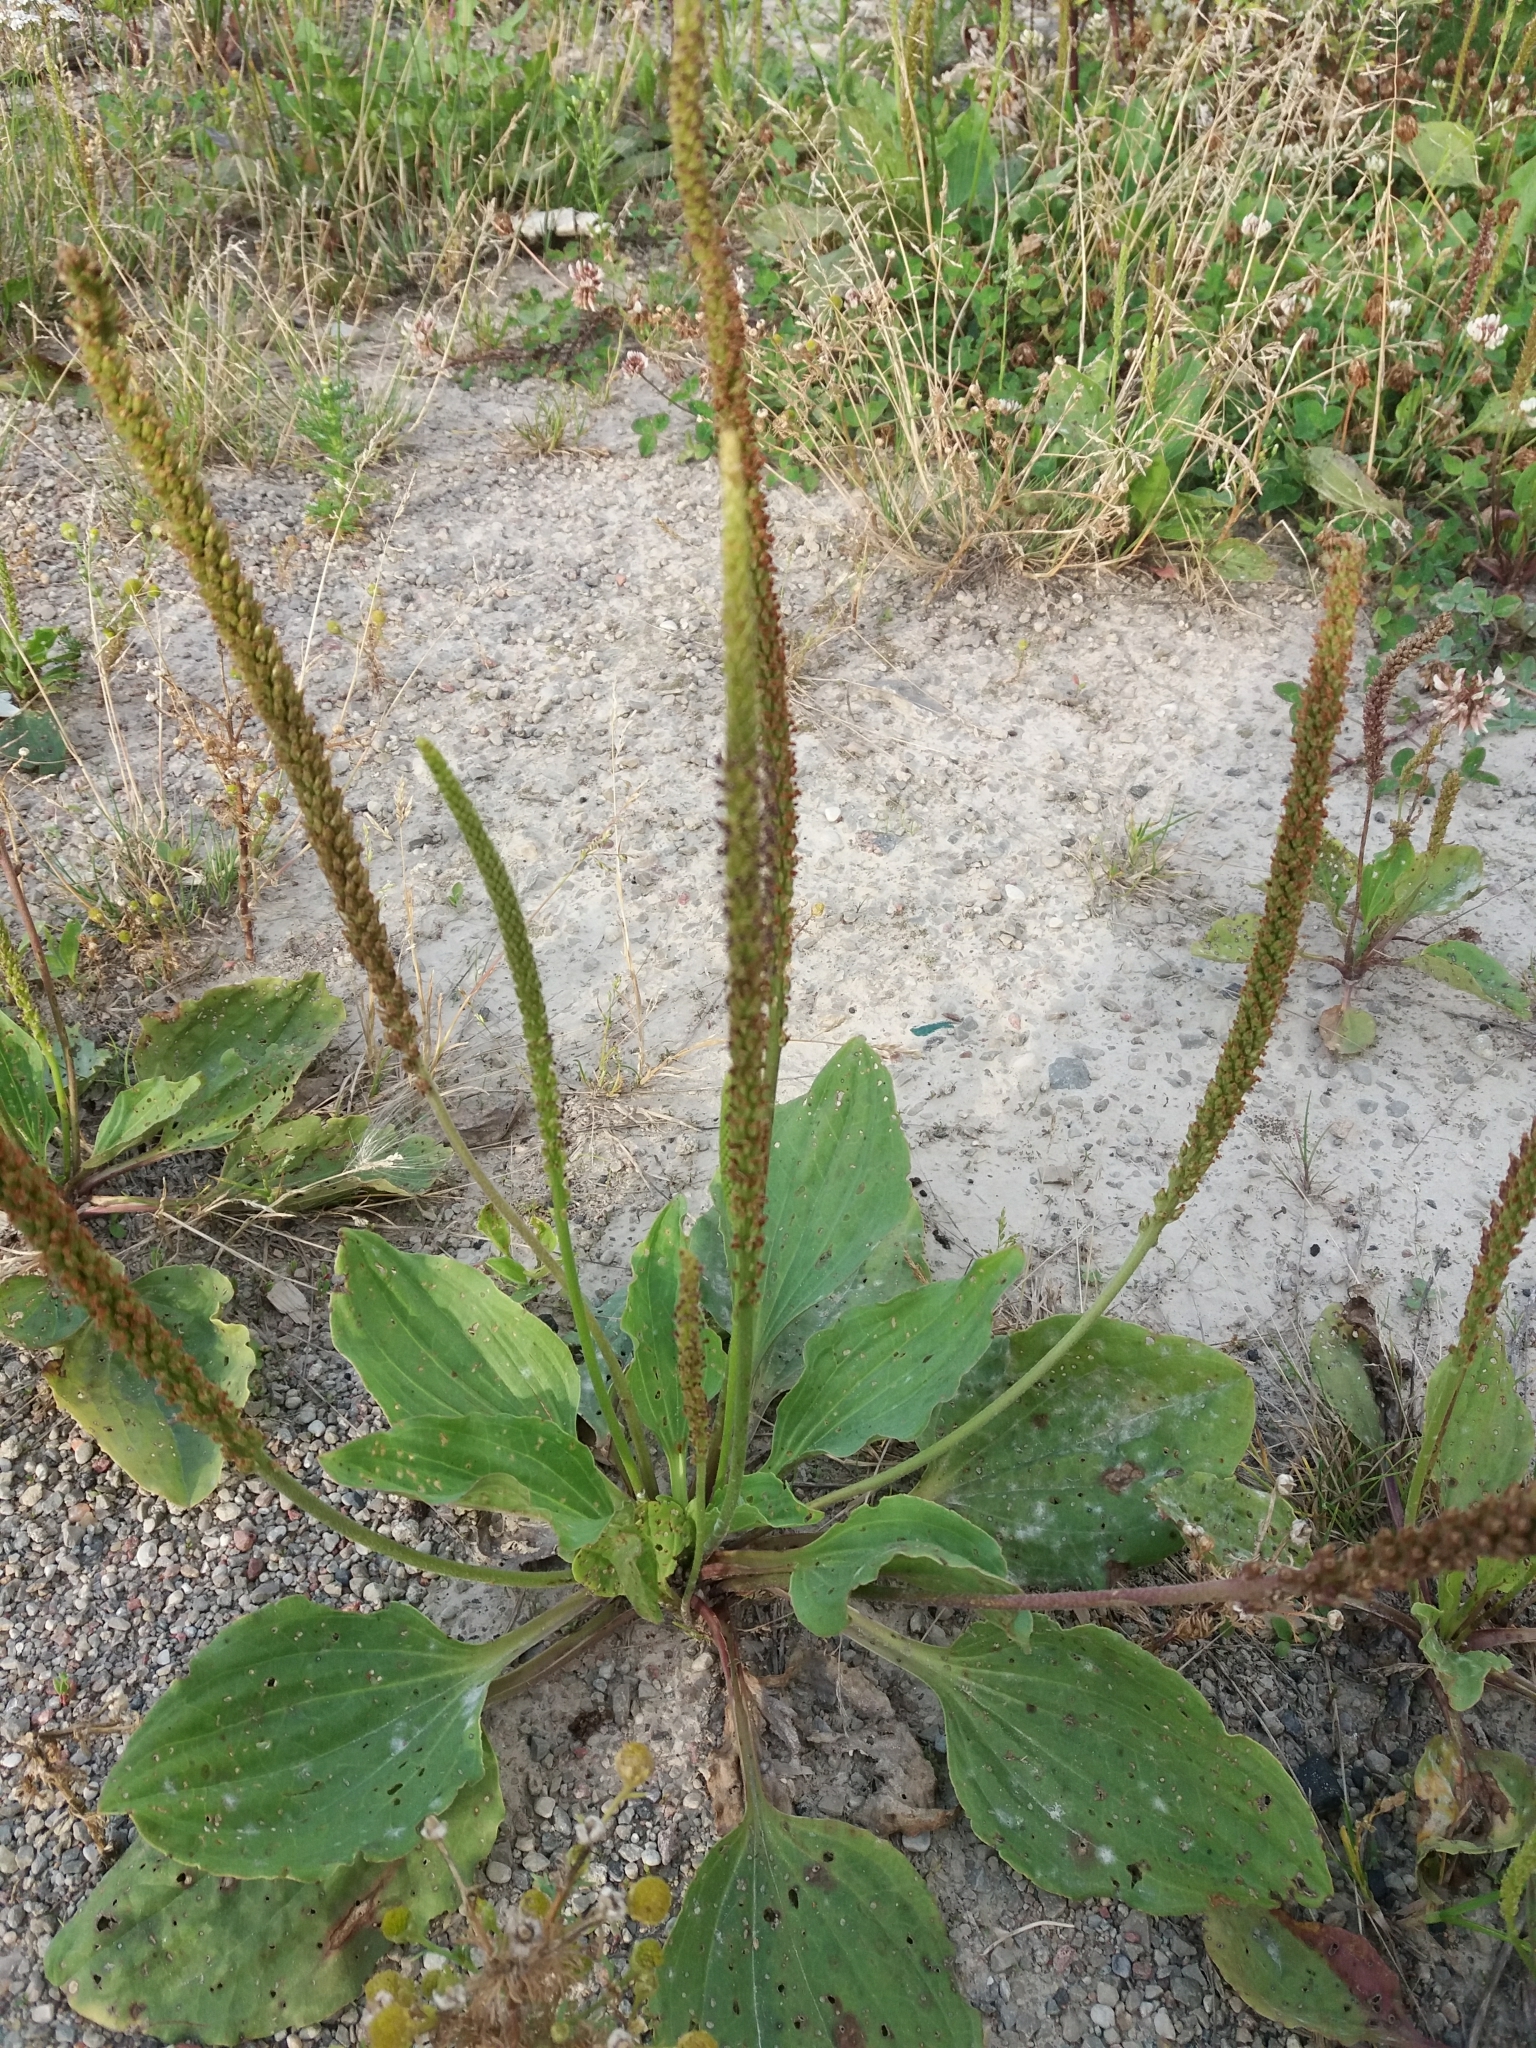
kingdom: Plantae
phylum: Tracheophyta
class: Magnoliopsida
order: Lamiales
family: Plantaginaceae
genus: Plantago
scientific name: Plantago major
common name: Common plantain
